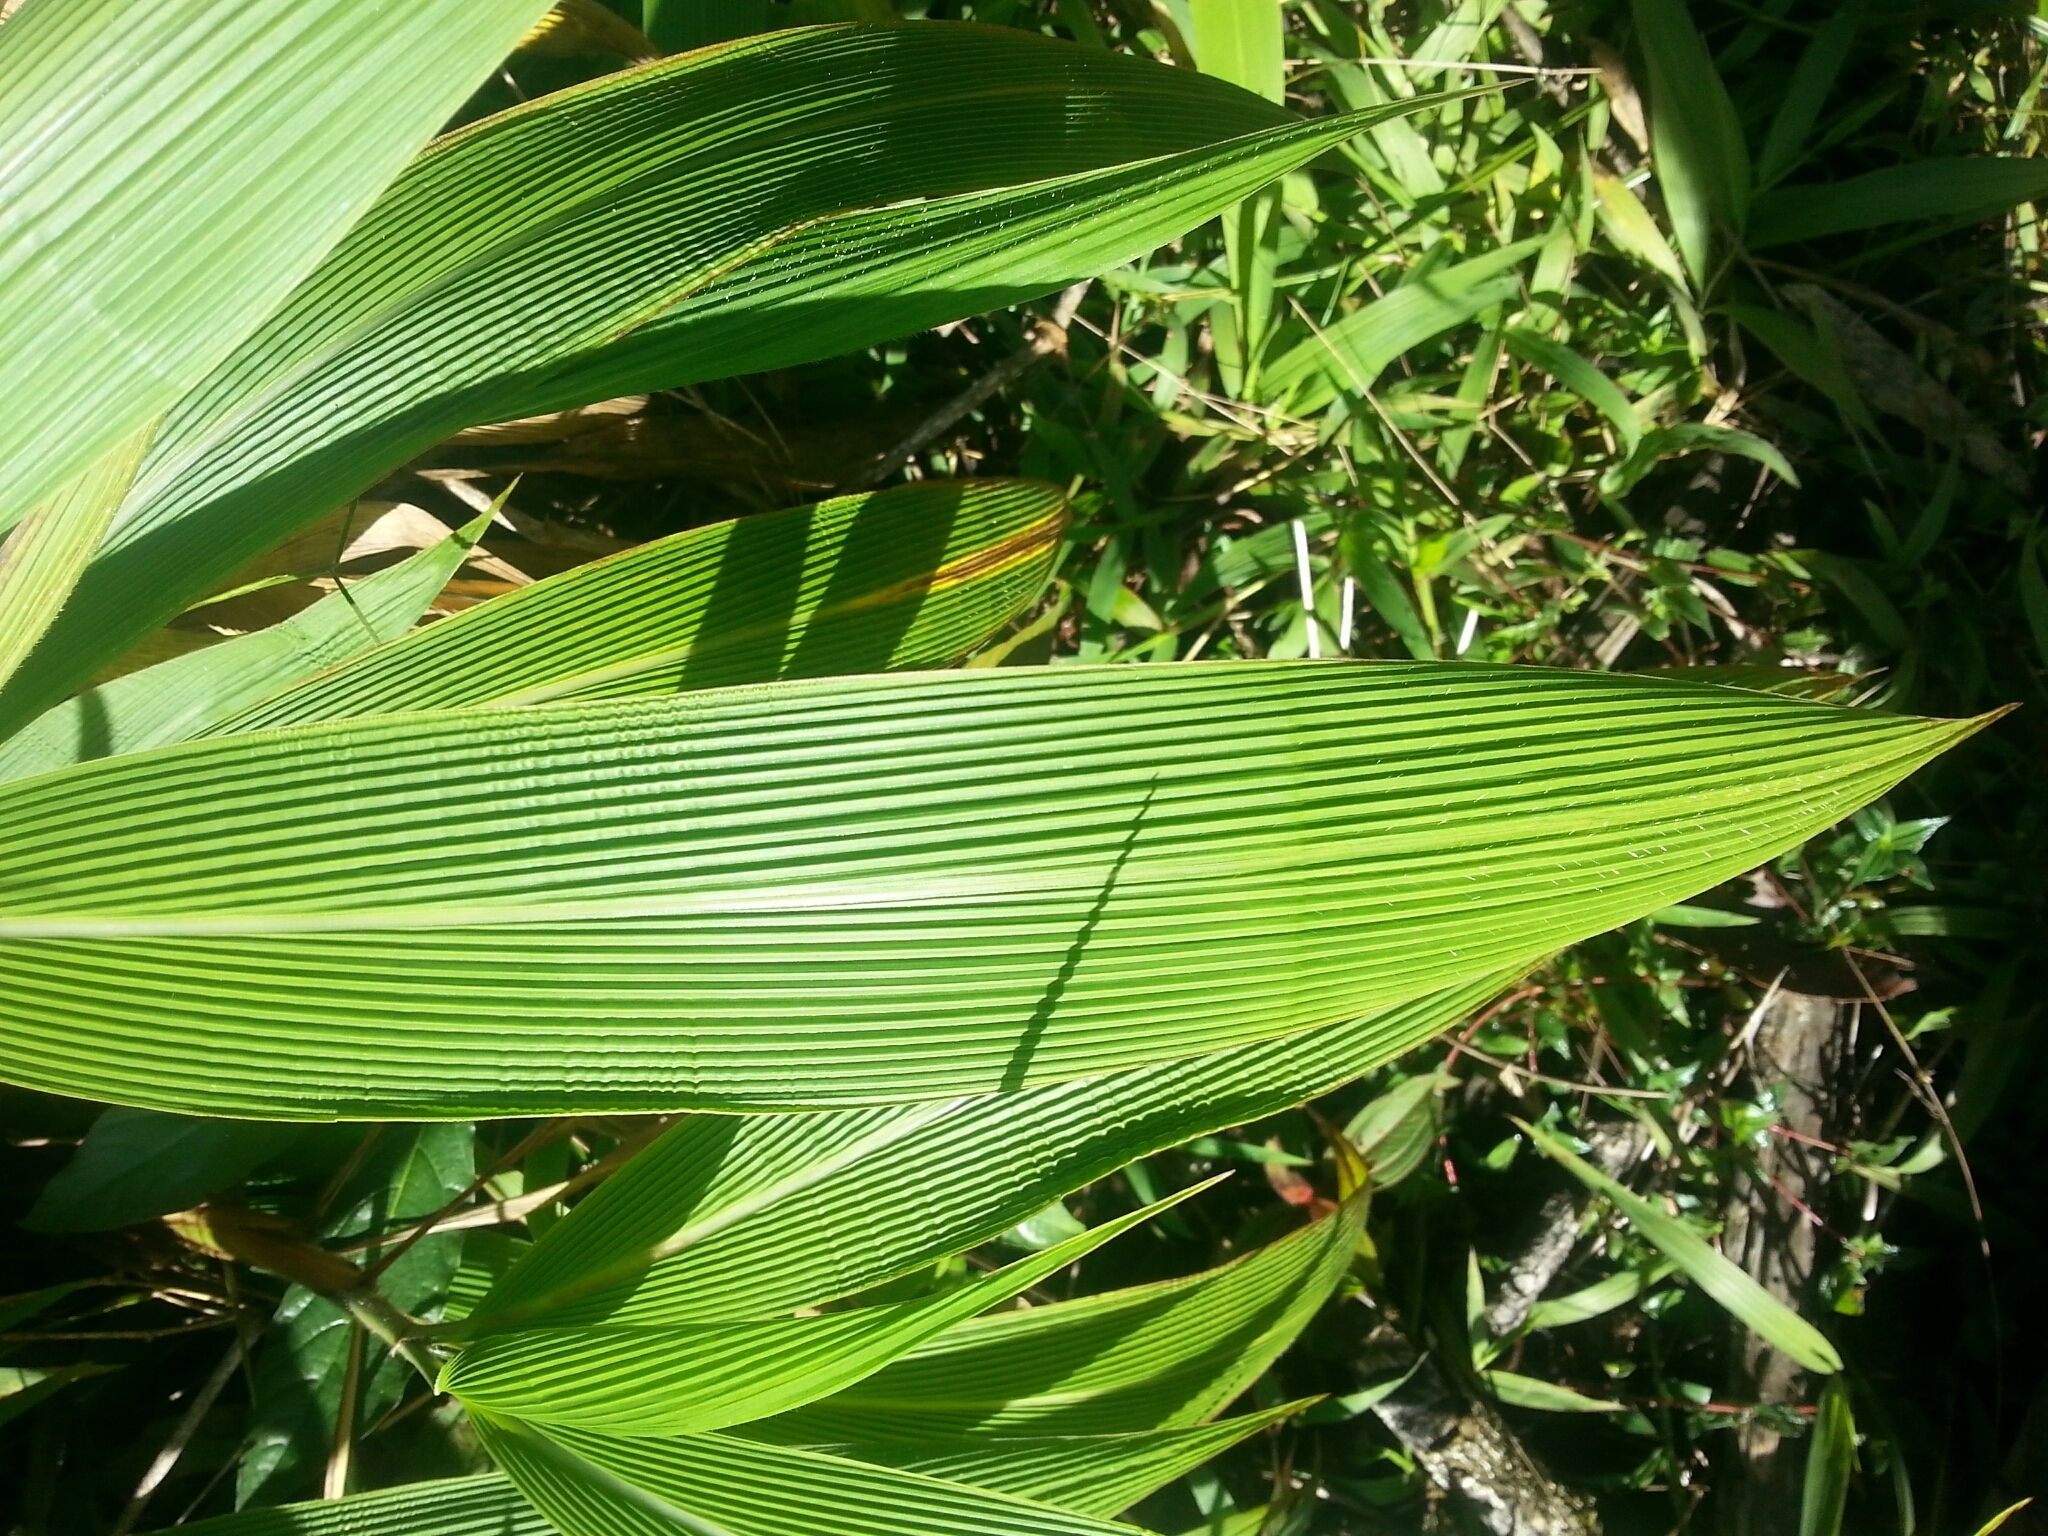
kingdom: Plantae
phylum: Tracheophyta
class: Liliopsida
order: Poales
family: Poaceae
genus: Setaria
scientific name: Setaria palmifolia
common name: Broadleaved bristlegrass
